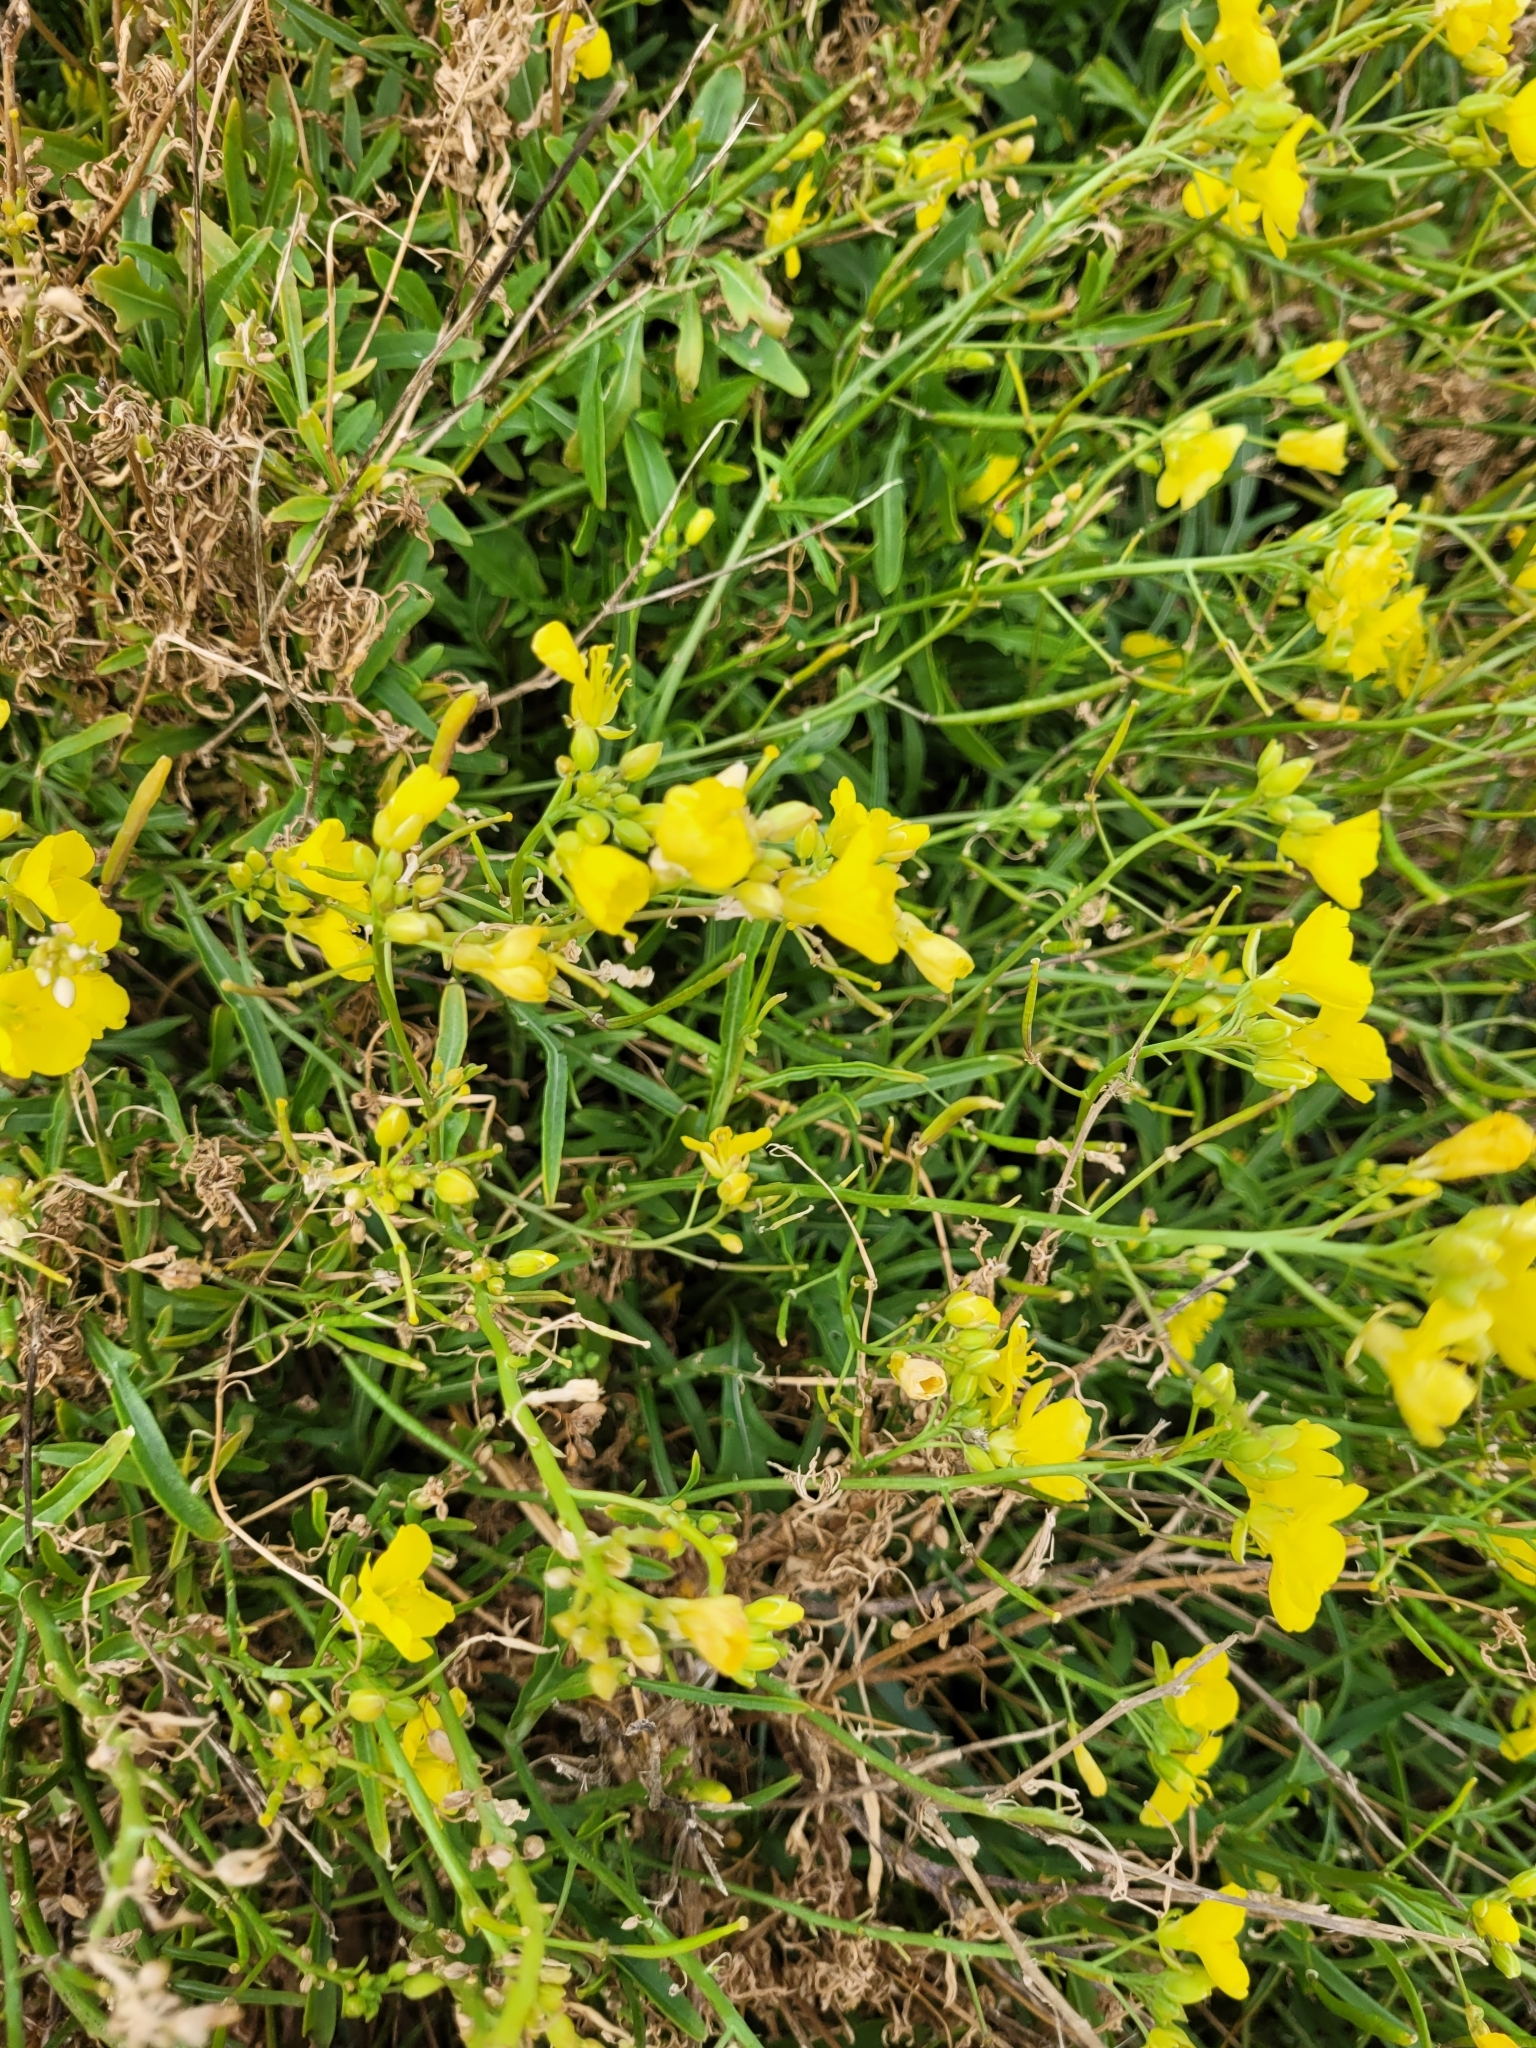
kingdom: Plantae
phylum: Tracheophyta
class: Magnoliopsida
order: Brassicales
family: Brassicaceae
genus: Diplotaxis
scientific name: Diplotaxis tenuifolia
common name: Perennial wall-rocket
